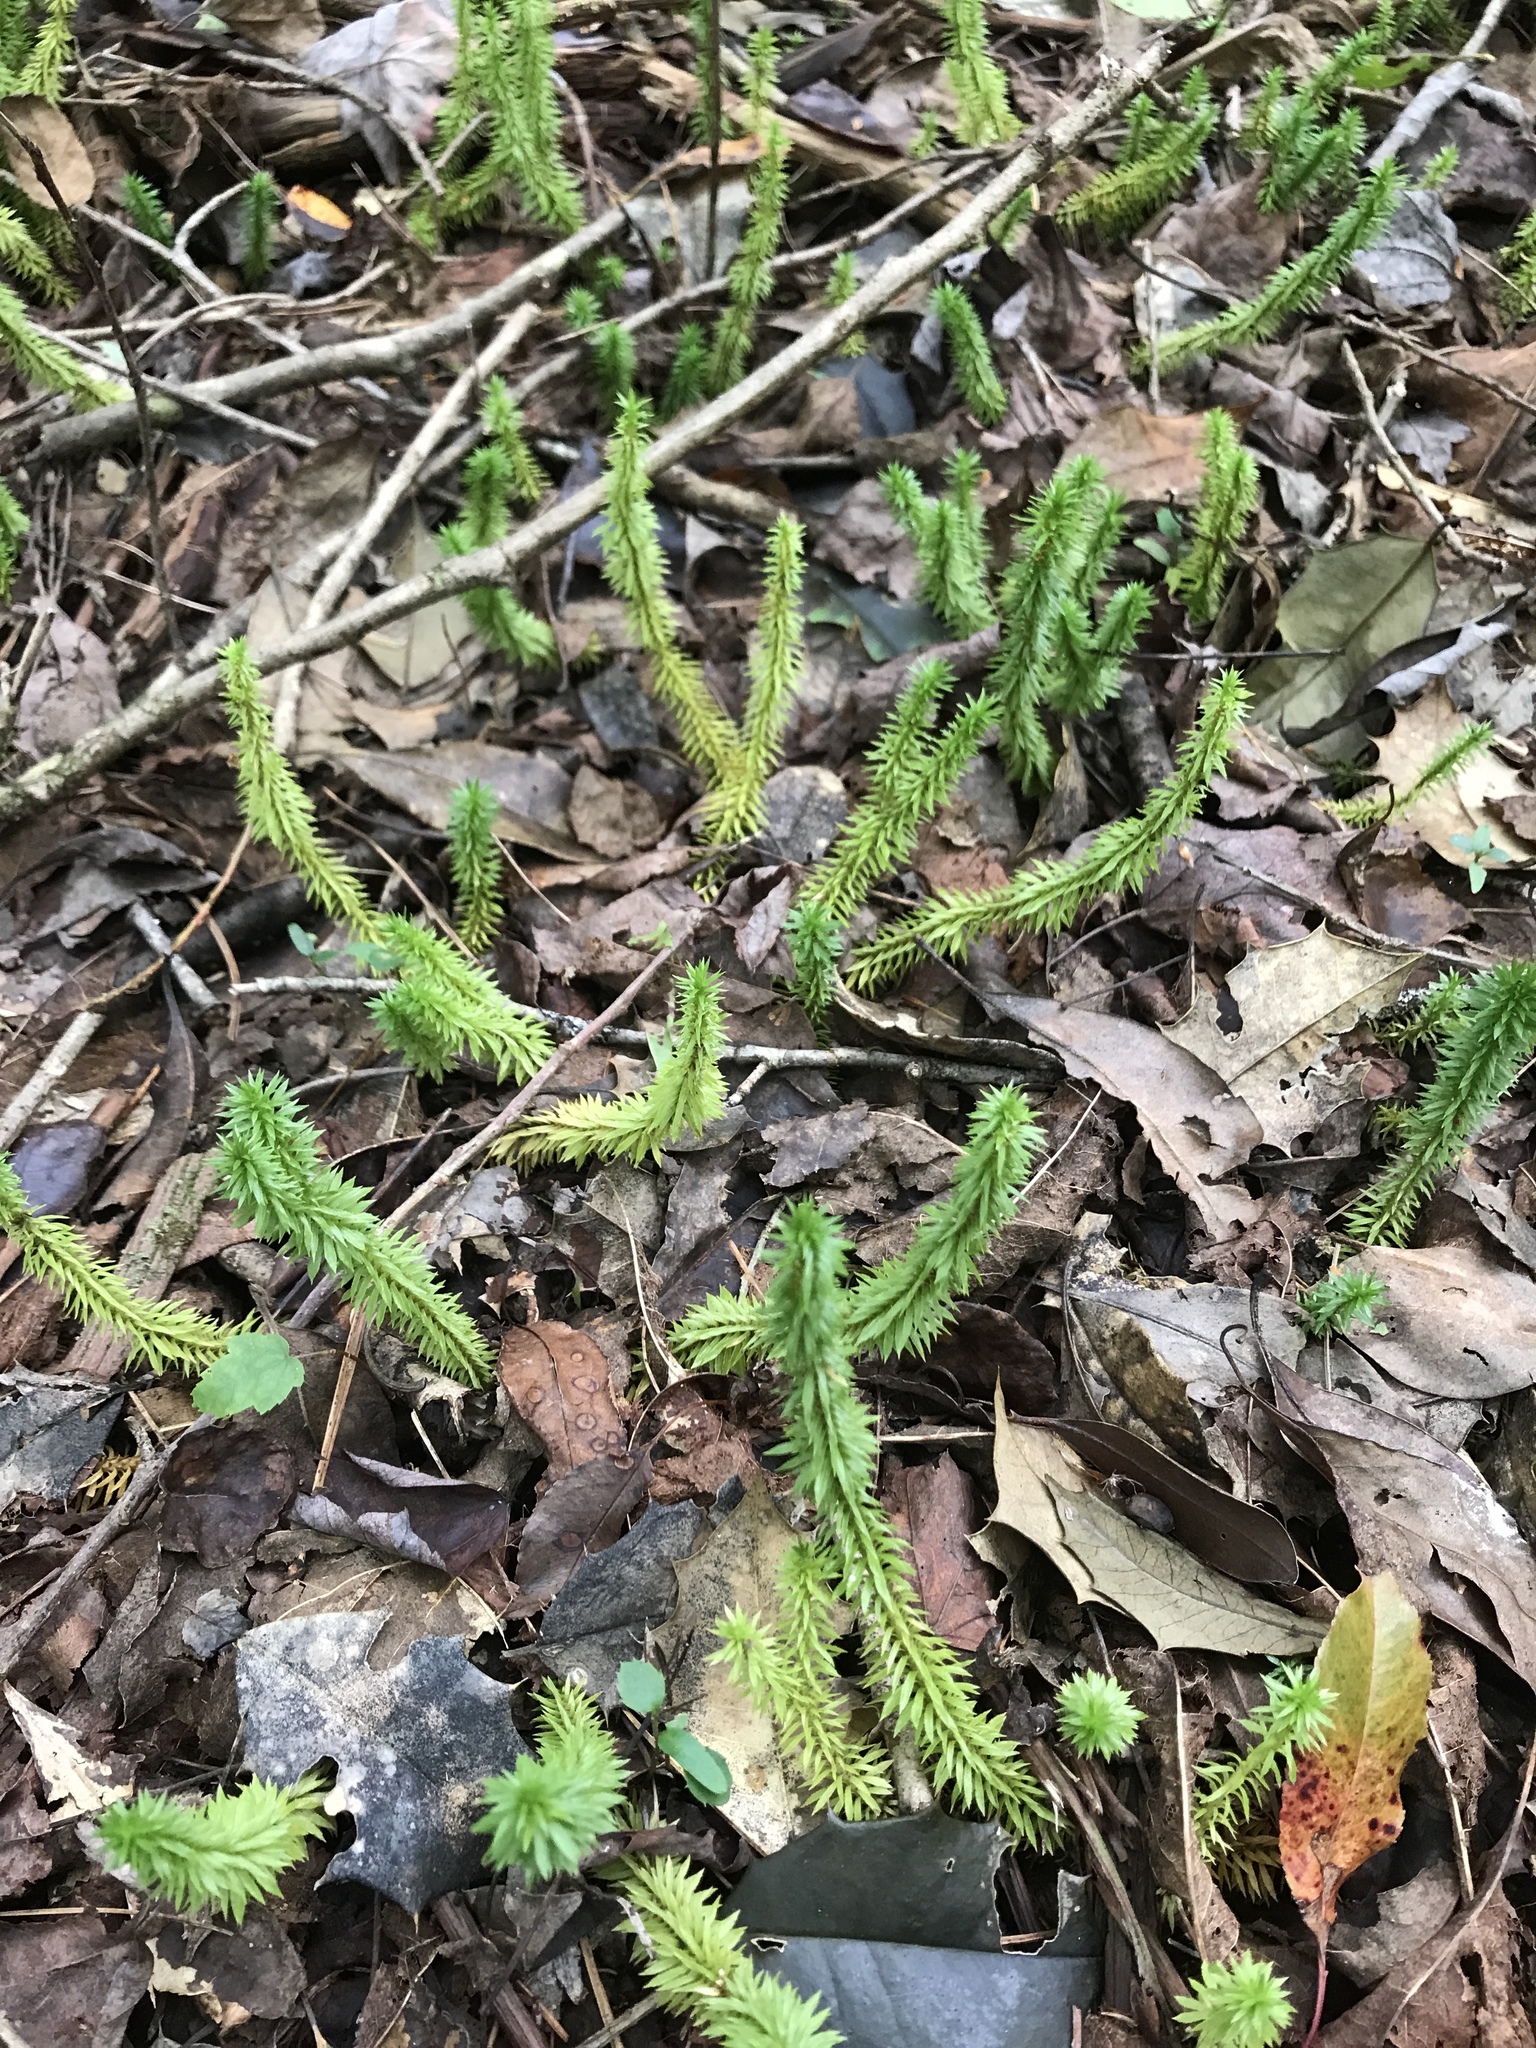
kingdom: Plantae
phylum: Tracheophyta
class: Lycopodiopsida
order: Lycopodiales
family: Lycopodiaceae
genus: Huperzia
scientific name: Huperzia lucidula
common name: Shining clubmoss
